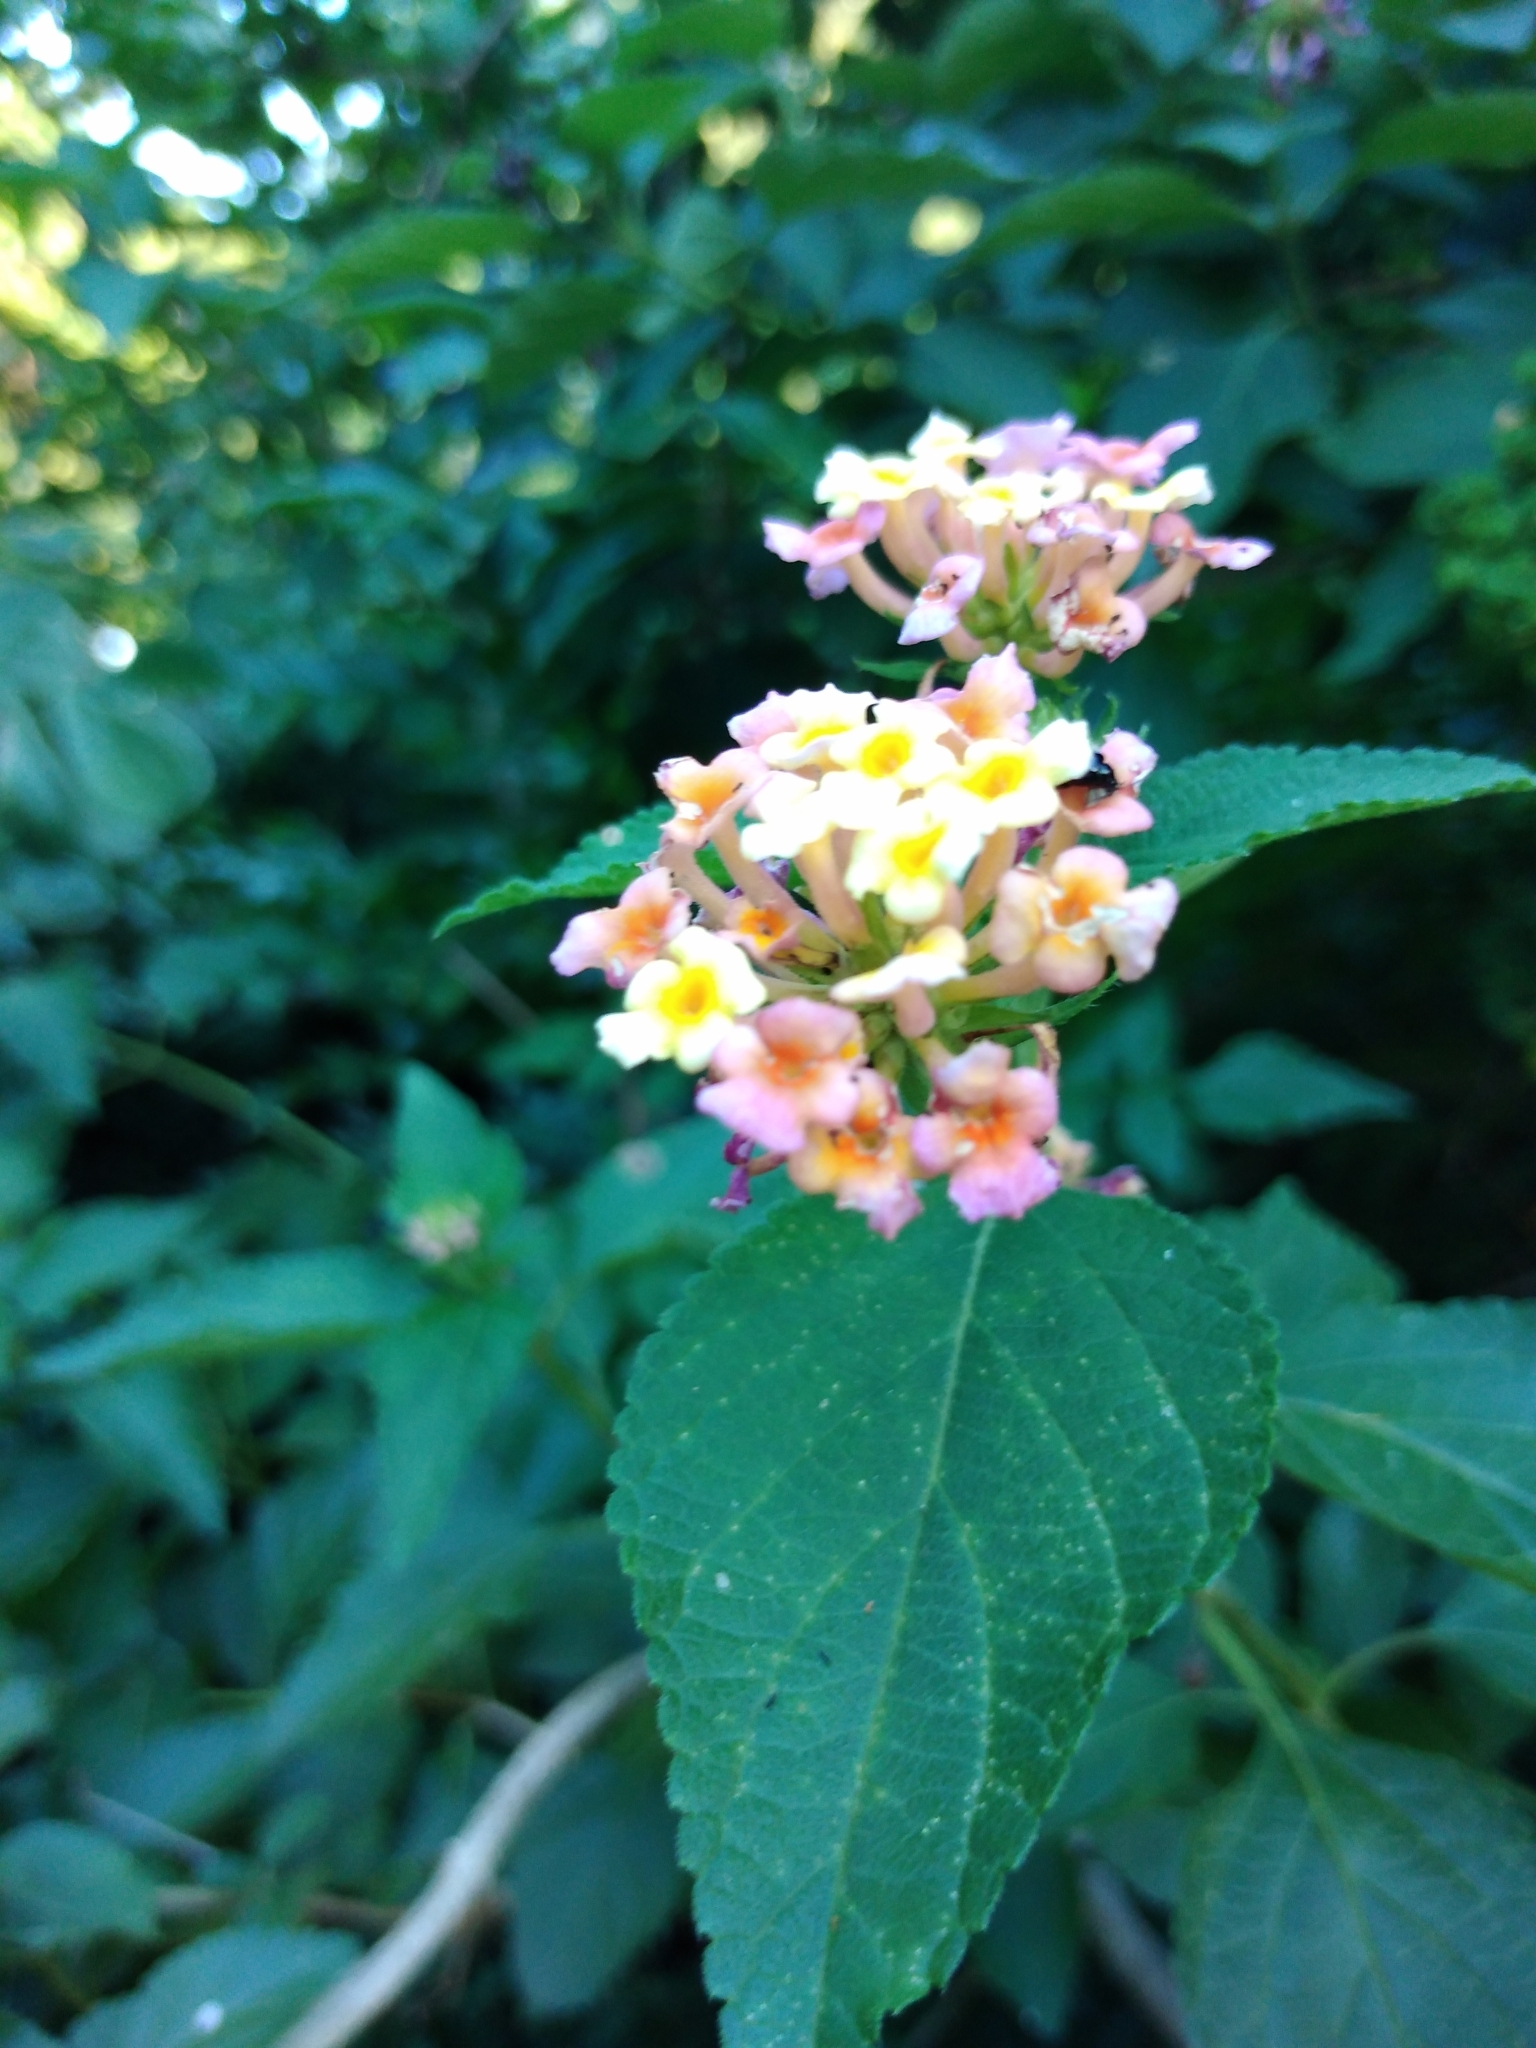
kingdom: Plantae
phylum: Tracheophyta
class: Magnoliopsida
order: Lamiales
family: Verbenaceae
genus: Lantana
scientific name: Lantana camara
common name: Lantana
